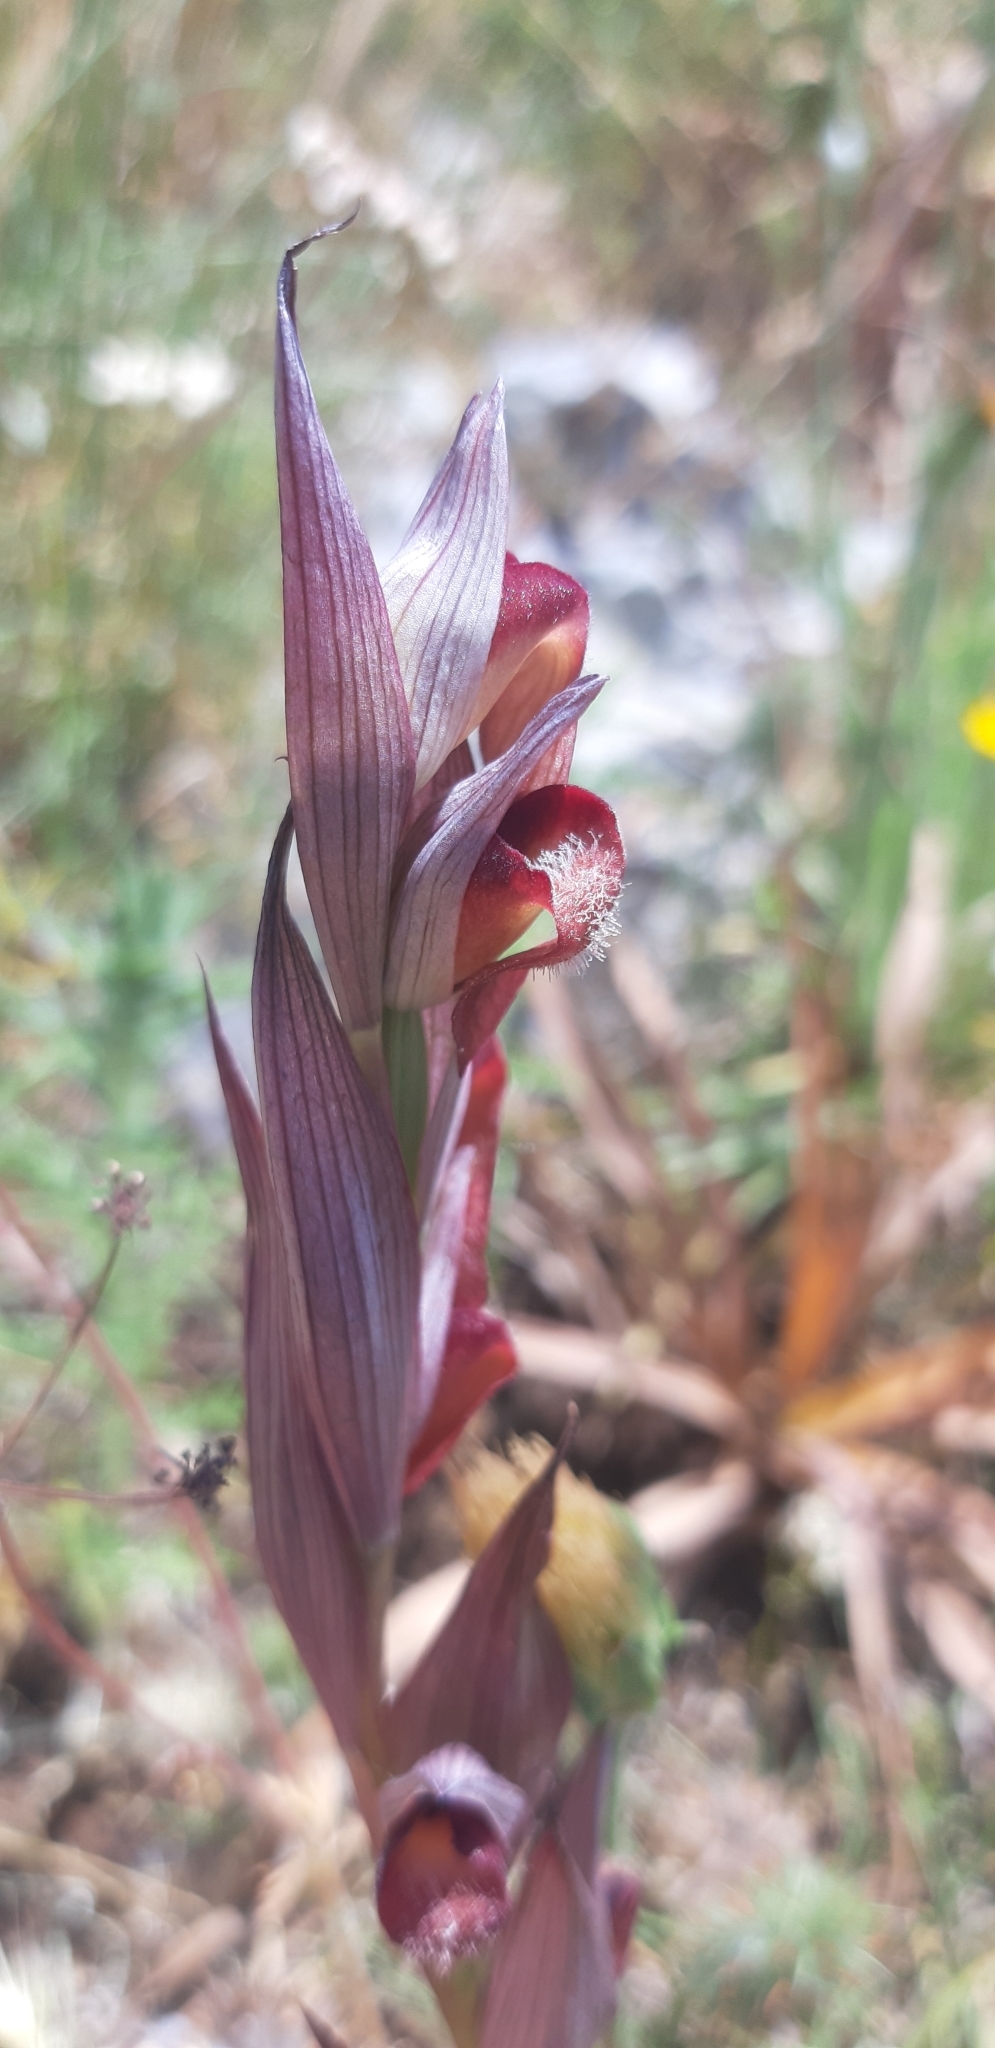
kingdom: Plantae
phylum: Tracheophyta
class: Liliopsida
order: Asparagales
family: Orchidaceae
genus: Serapias
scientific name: Serapias vomeracea
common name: Long-lipped tongue-orchid
